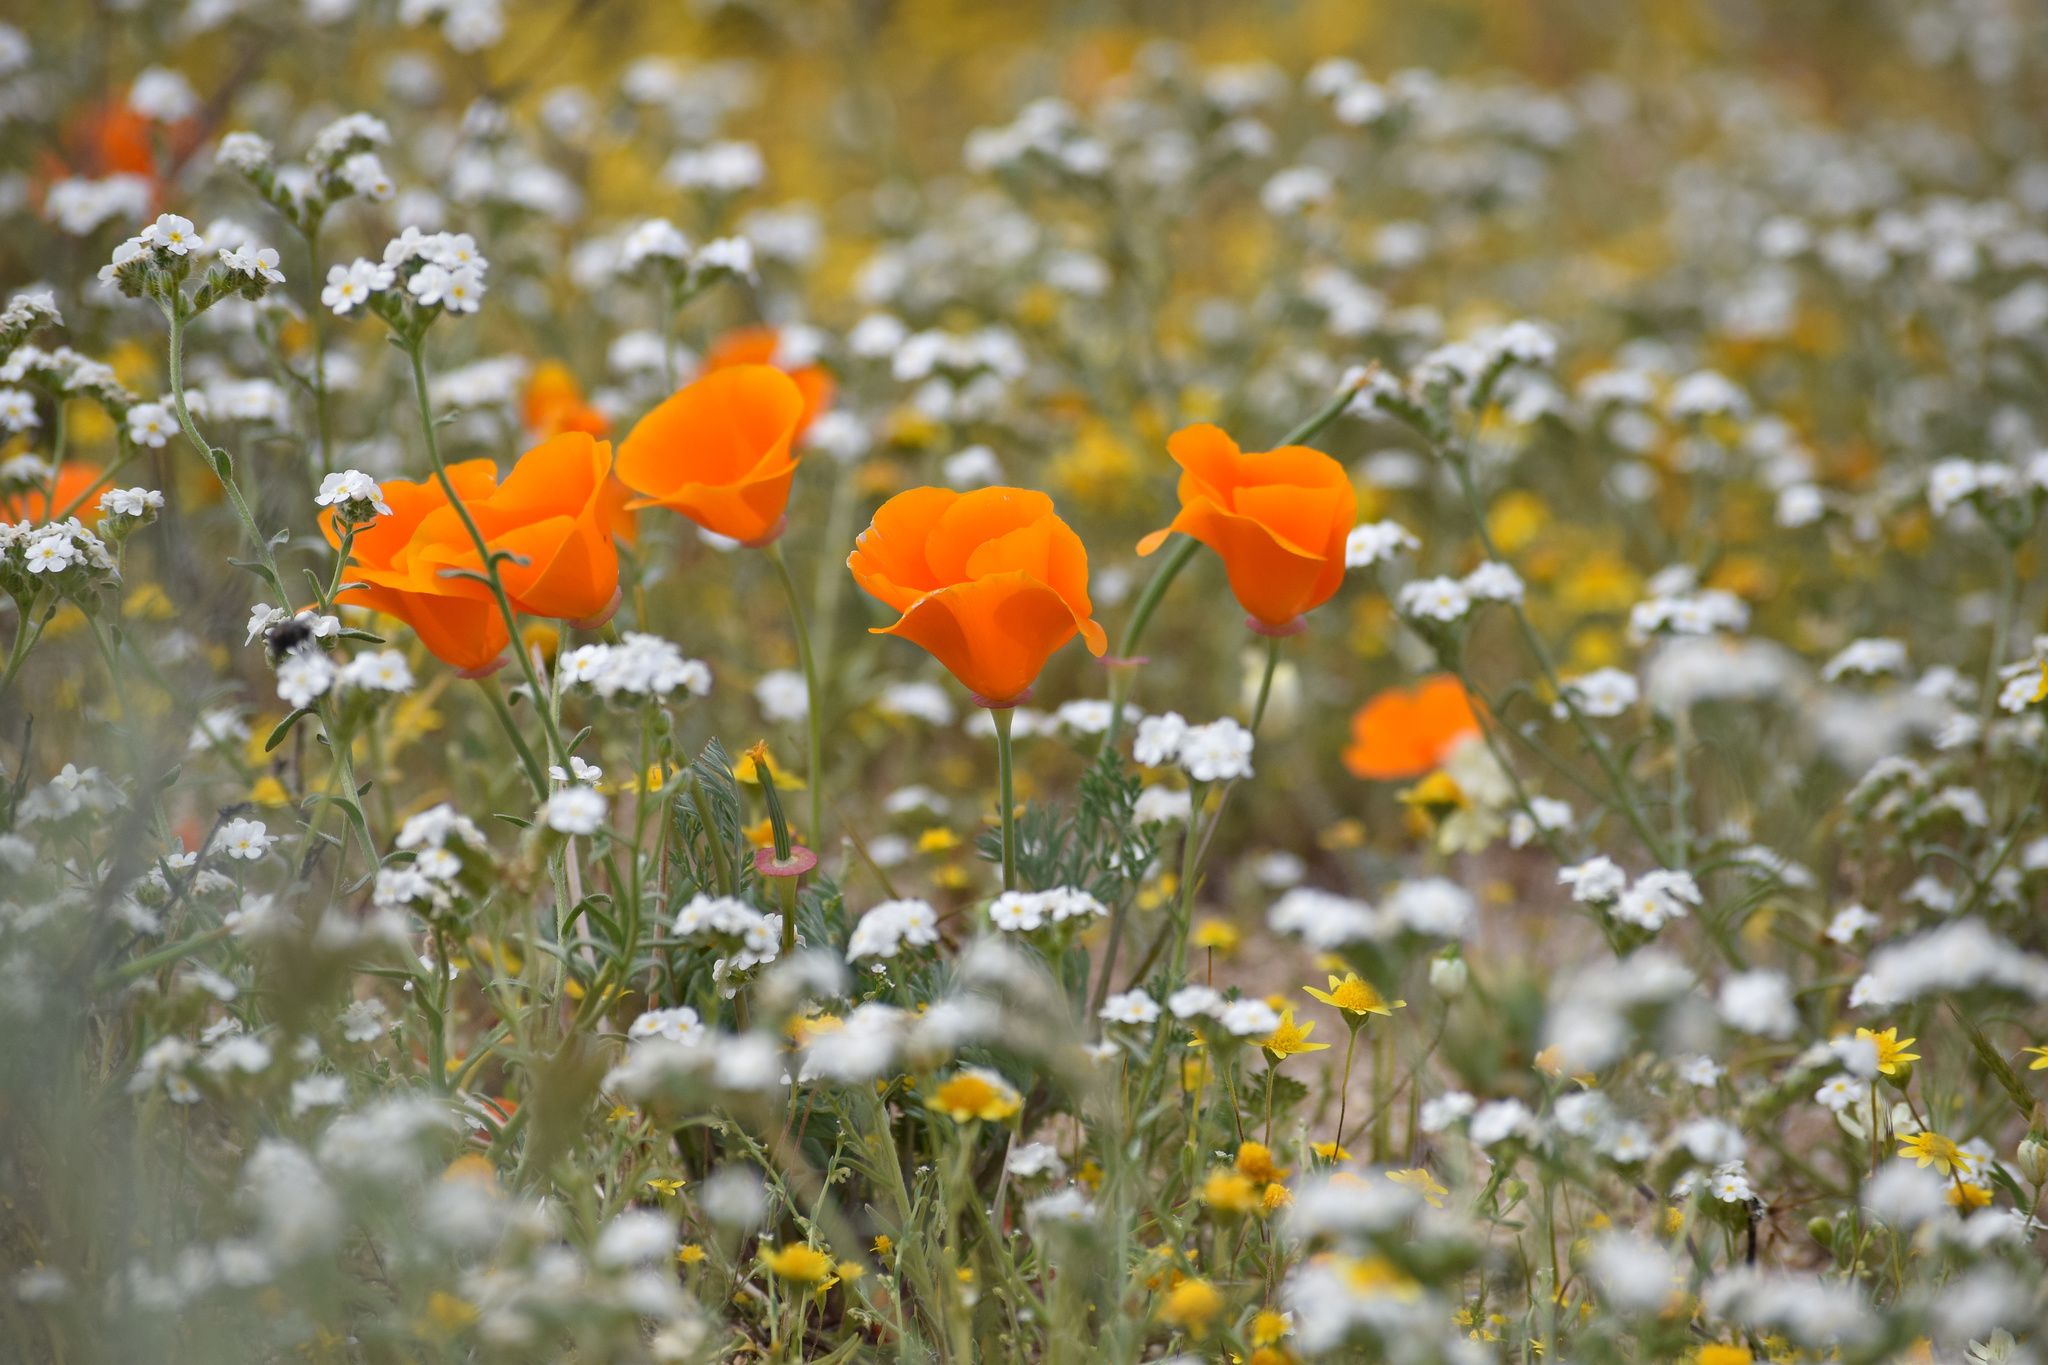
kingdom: Plantae
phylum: Tracheophyta
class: Magnoliopsida
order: Ranunculales
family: Papaveraceae
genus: Eschscholzia
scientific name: Eschscholzia californica
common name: California poppy
